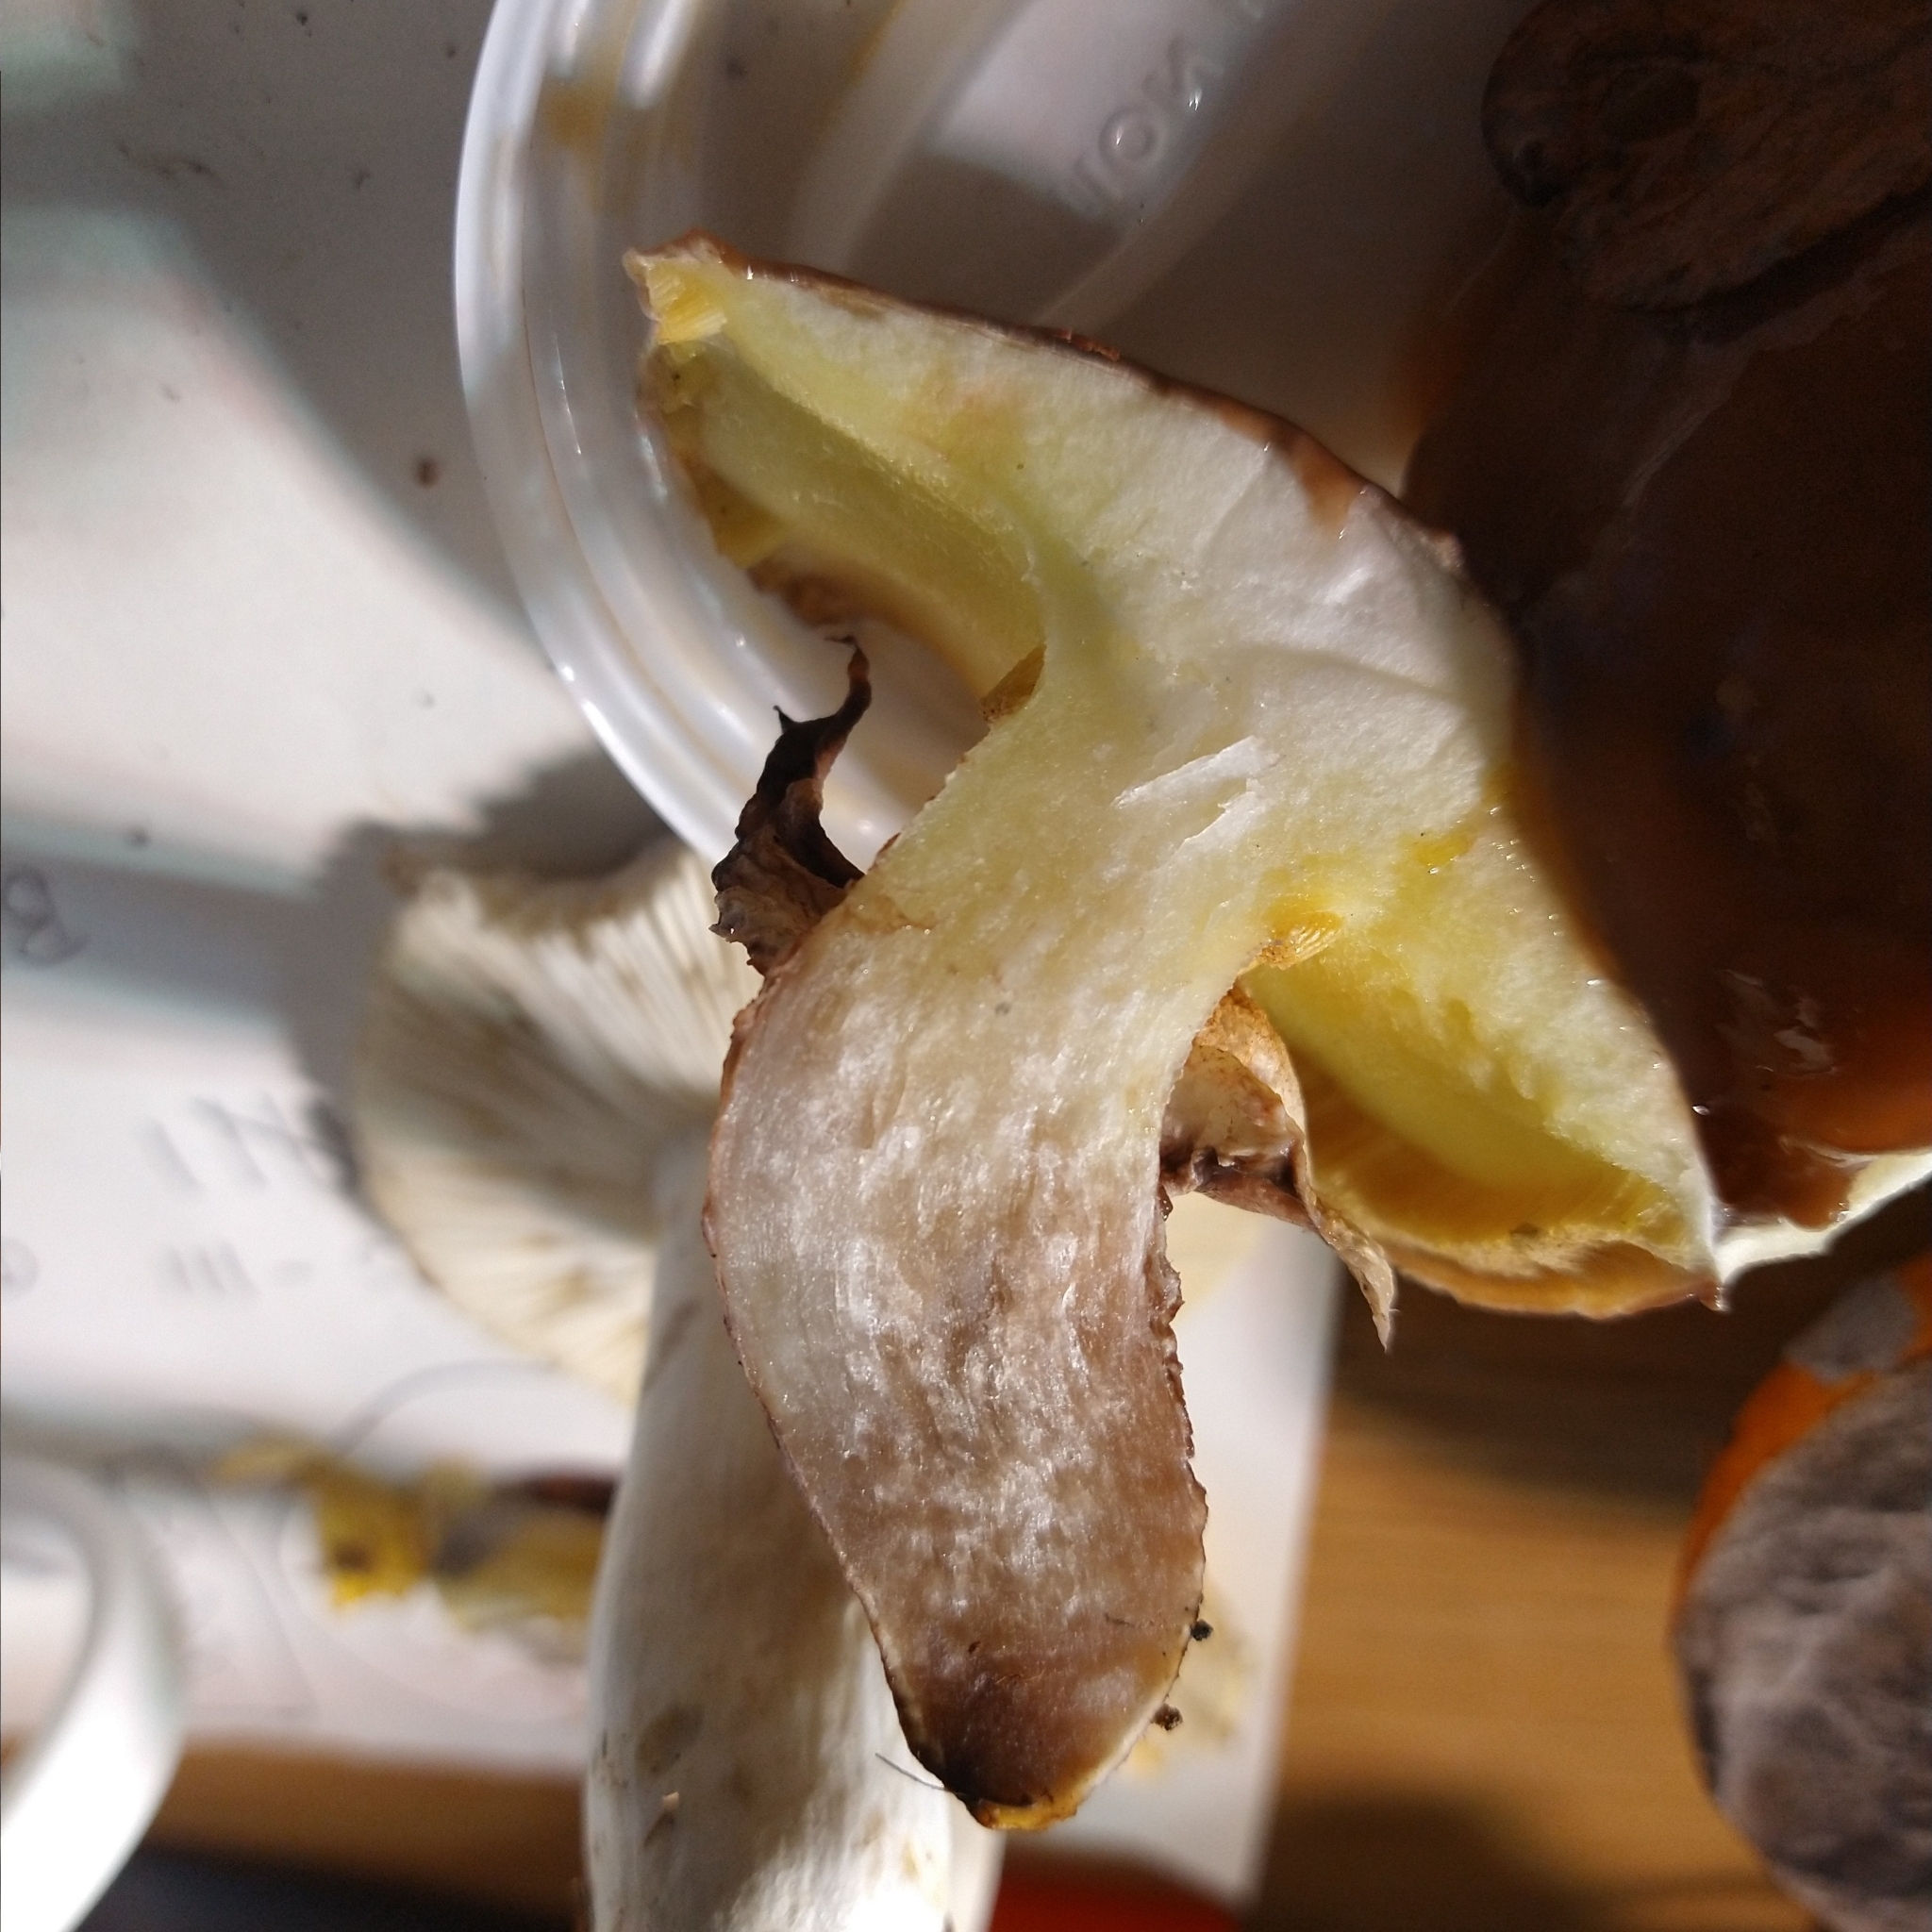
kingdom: Fungi
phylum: Basidiomycota
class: Agaricomycetes
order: Boletales
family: Suillaceae
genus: Suillus
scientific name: Suillus luteus
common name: Slippery jack
